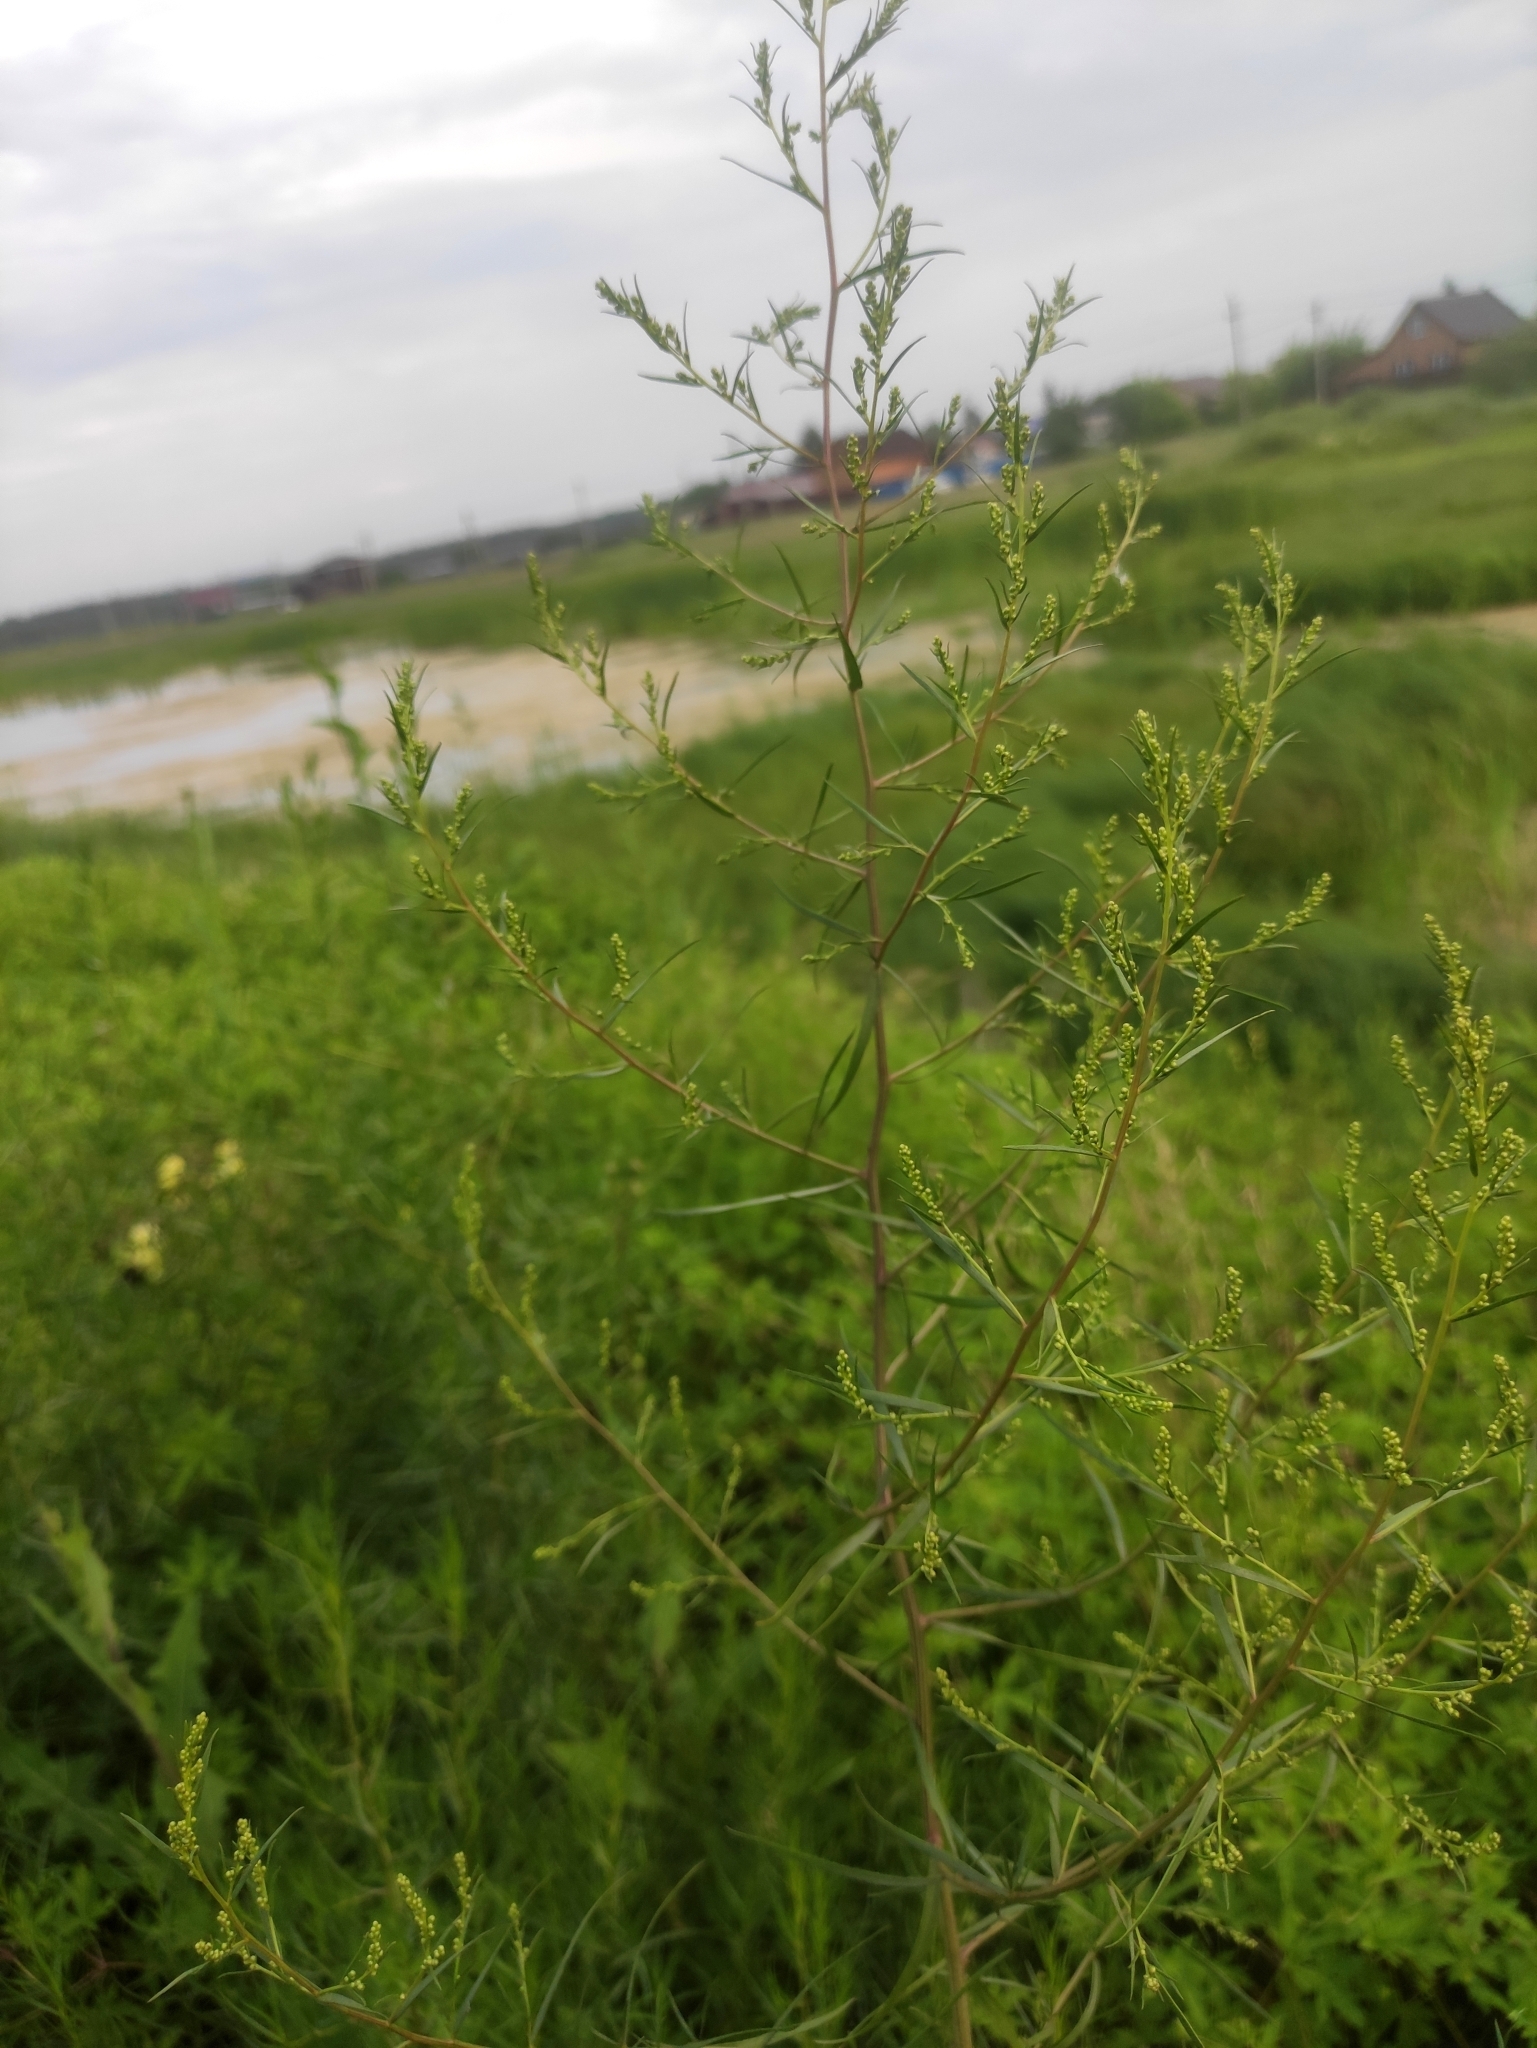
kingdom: Plantae
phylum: Tracheophyta
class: Magnoliopsida
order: Asterales
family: Asteraceae
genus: Artemisia
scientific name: Artemisia dracunculus
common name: Tarragon
